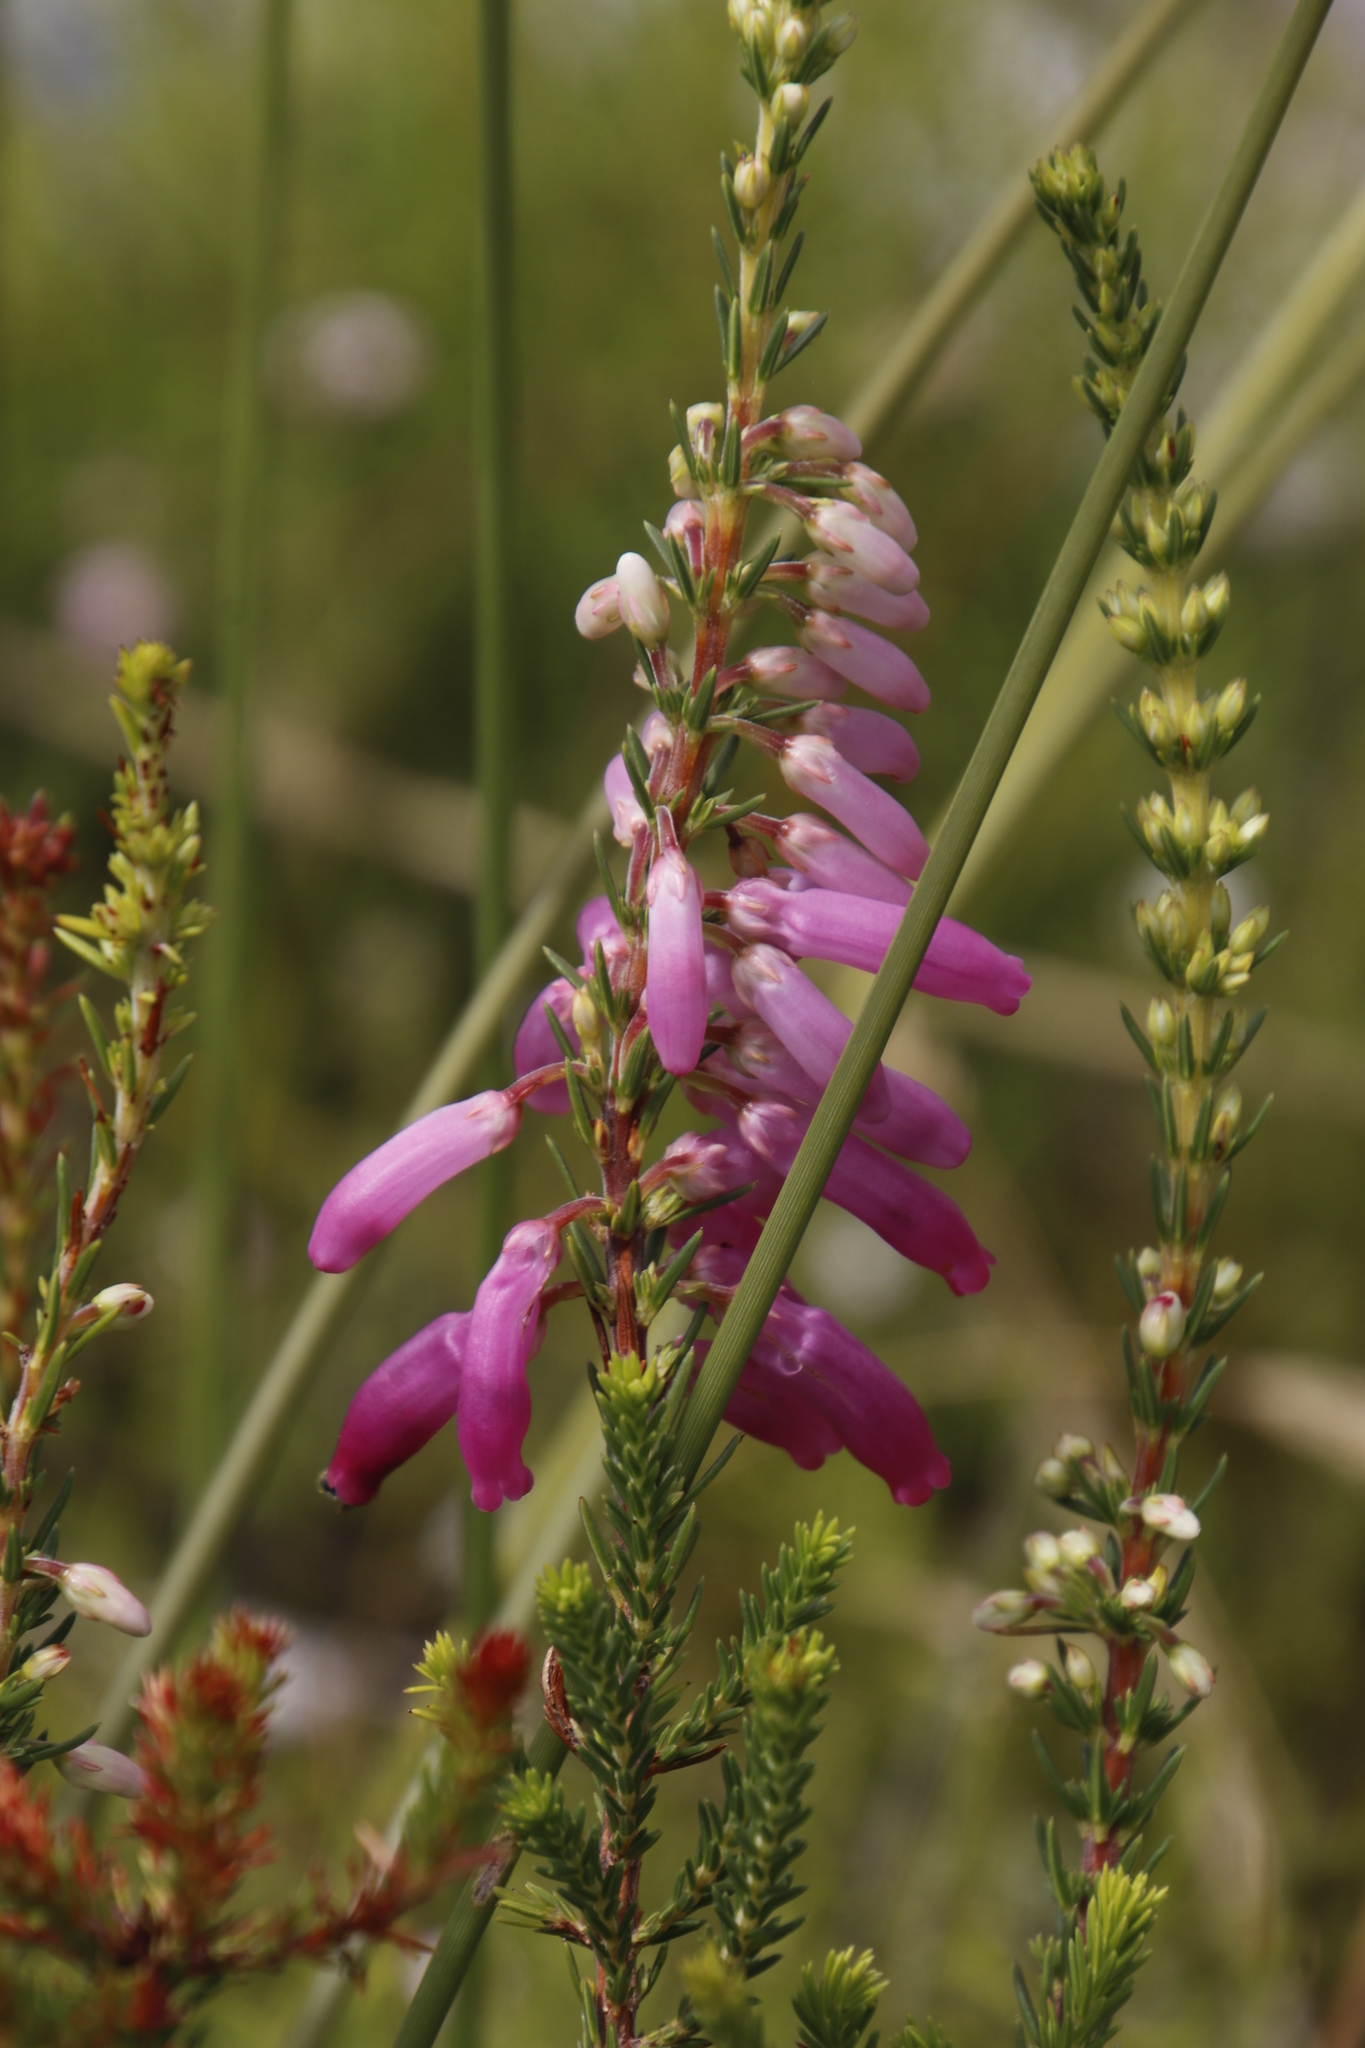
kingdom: Plantae
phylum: Tracheophyta
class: Magnoliopsida
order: Ericales
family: Ericaceae
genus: Erica
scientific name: Erica mammosa
